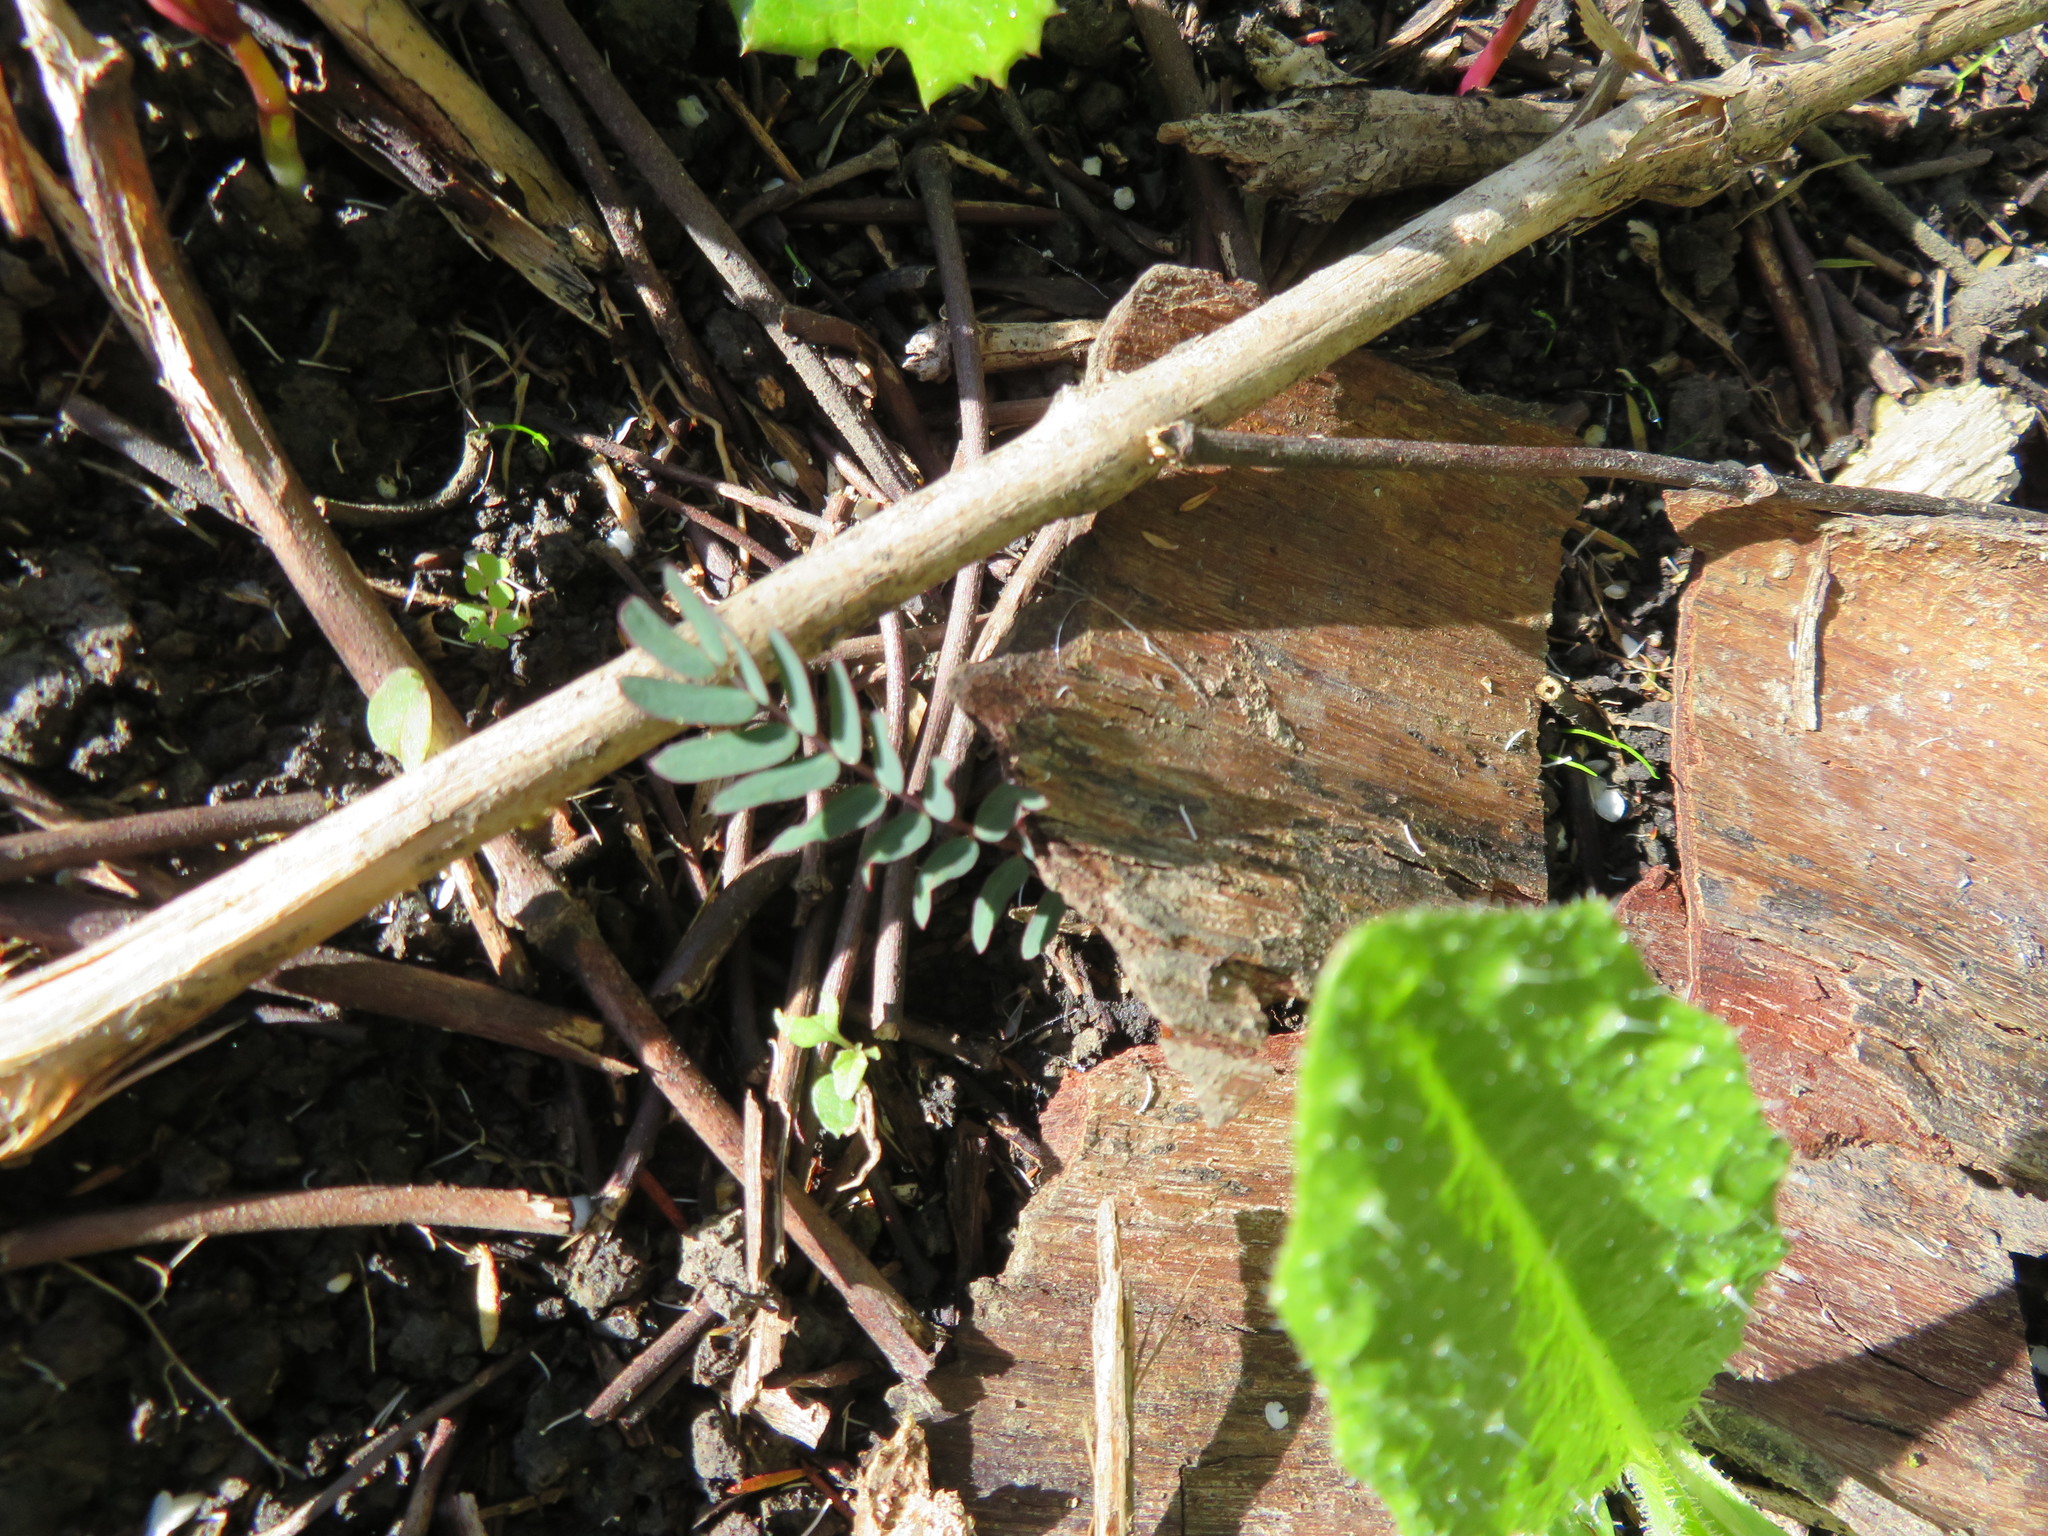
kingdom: Plantae
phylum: Tracheophyta
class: Magnoliopsida
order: Fabales
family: Fabaceae
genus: Paraserianthes
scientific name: Paraserianthes lophantha
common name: Plume albizia
